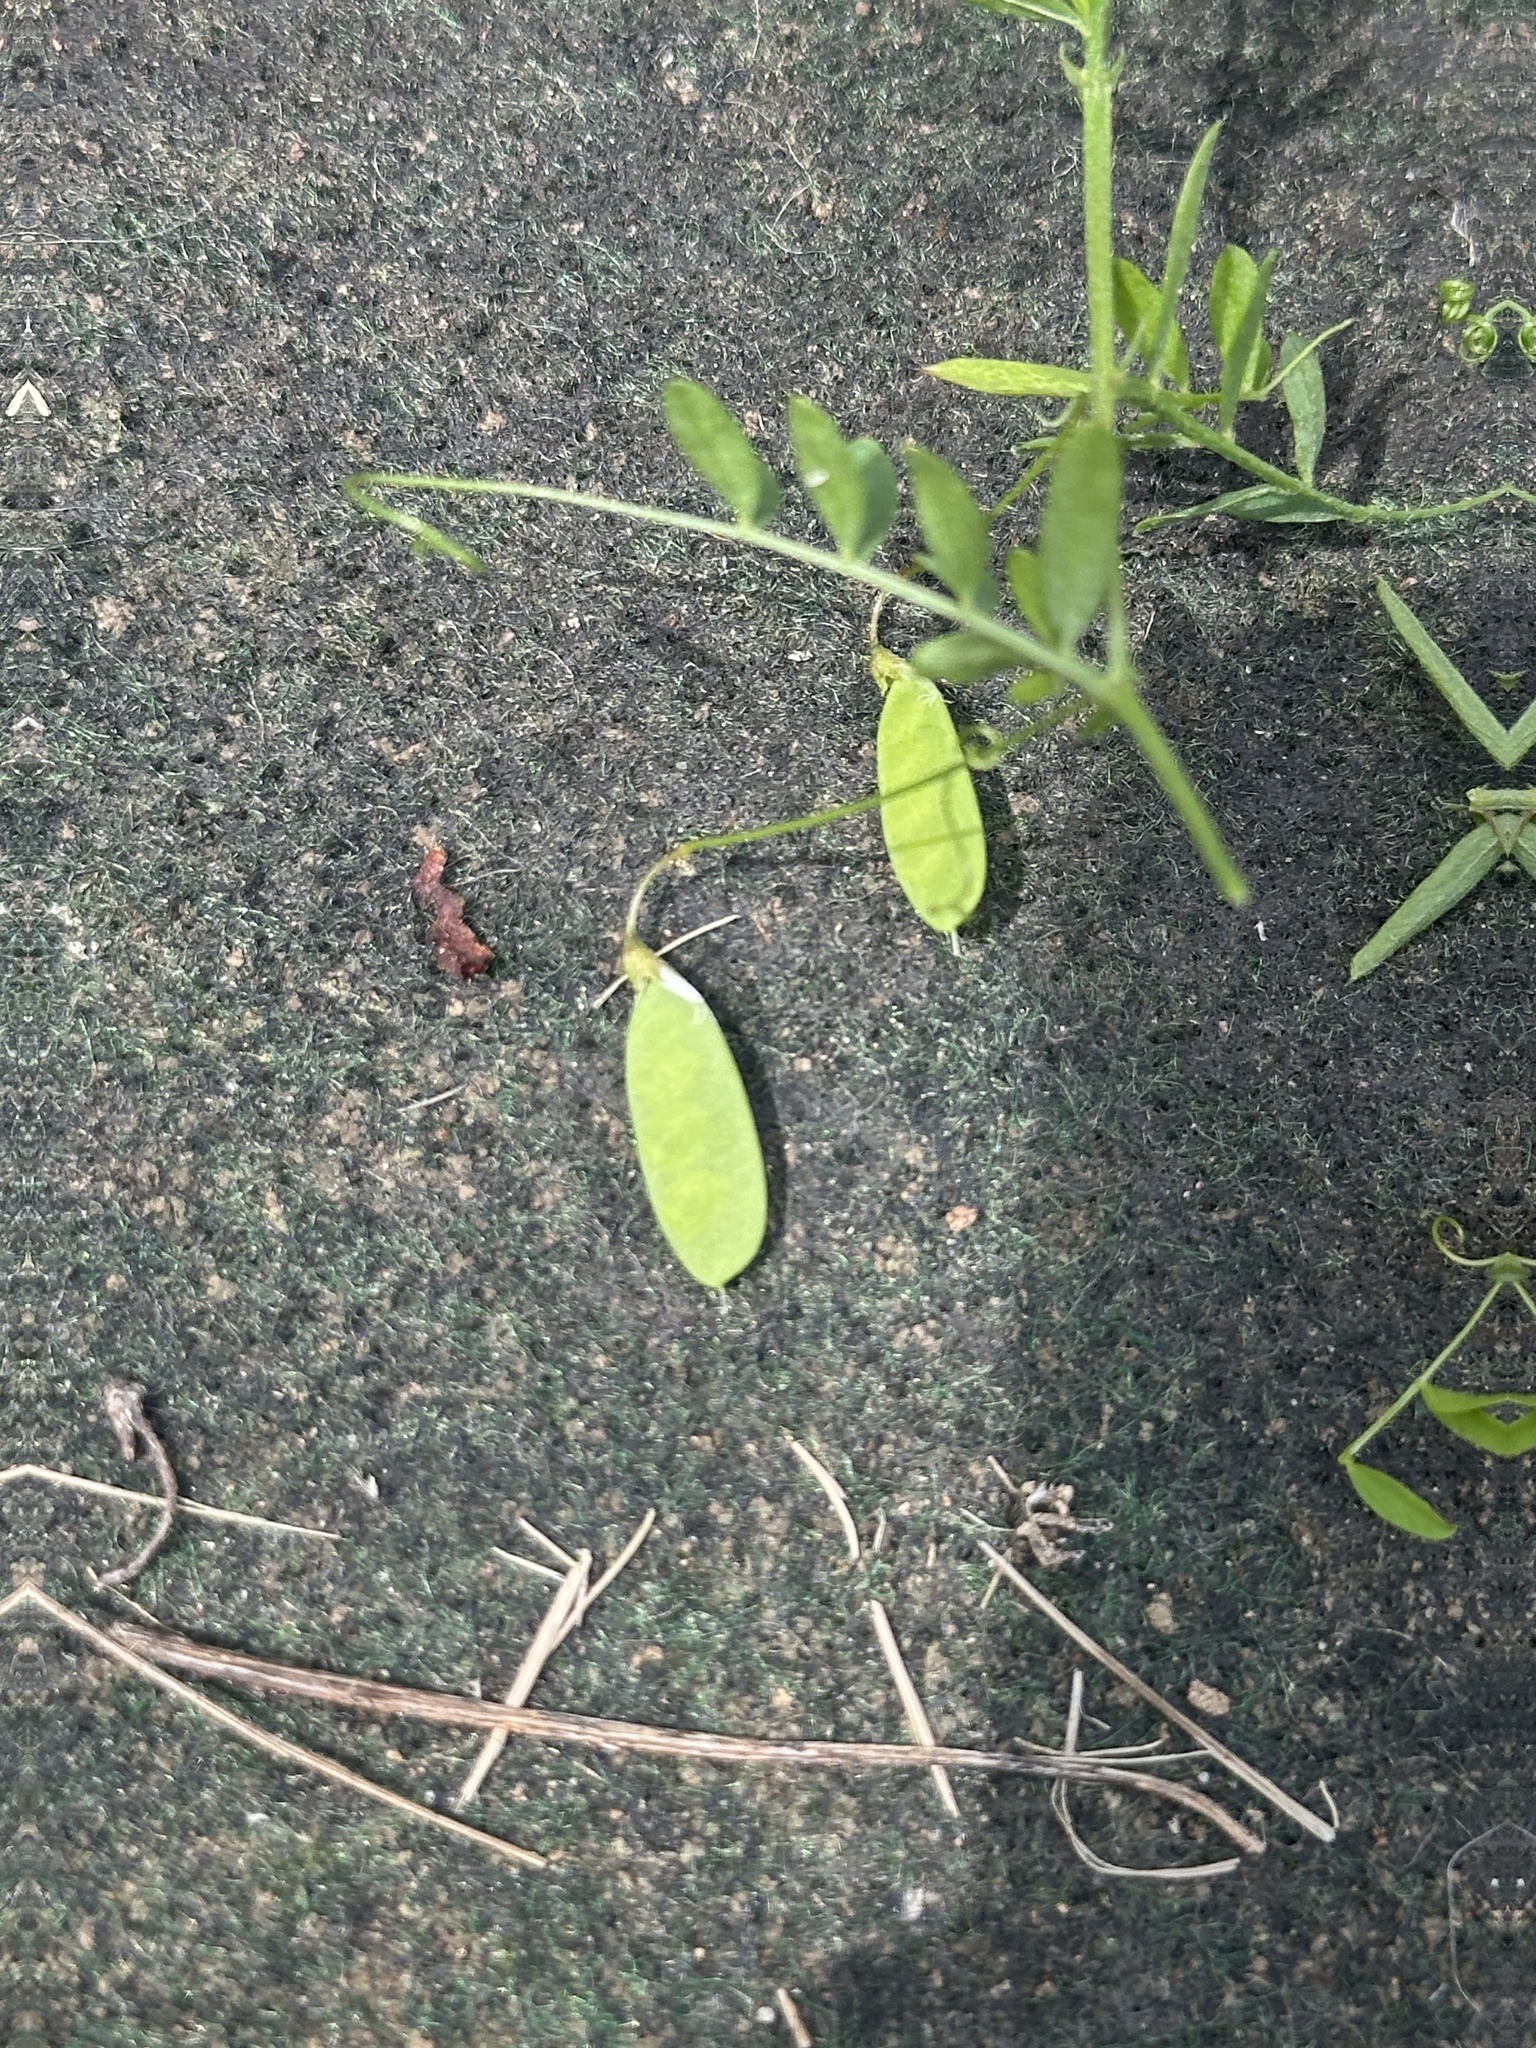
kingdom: Plantae
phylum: Tracheophyta
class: Magnoliopsida
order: Fabales
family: Fabaceae
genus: Vicia
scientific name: Vicia tetrasperma
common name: Smooth tare
